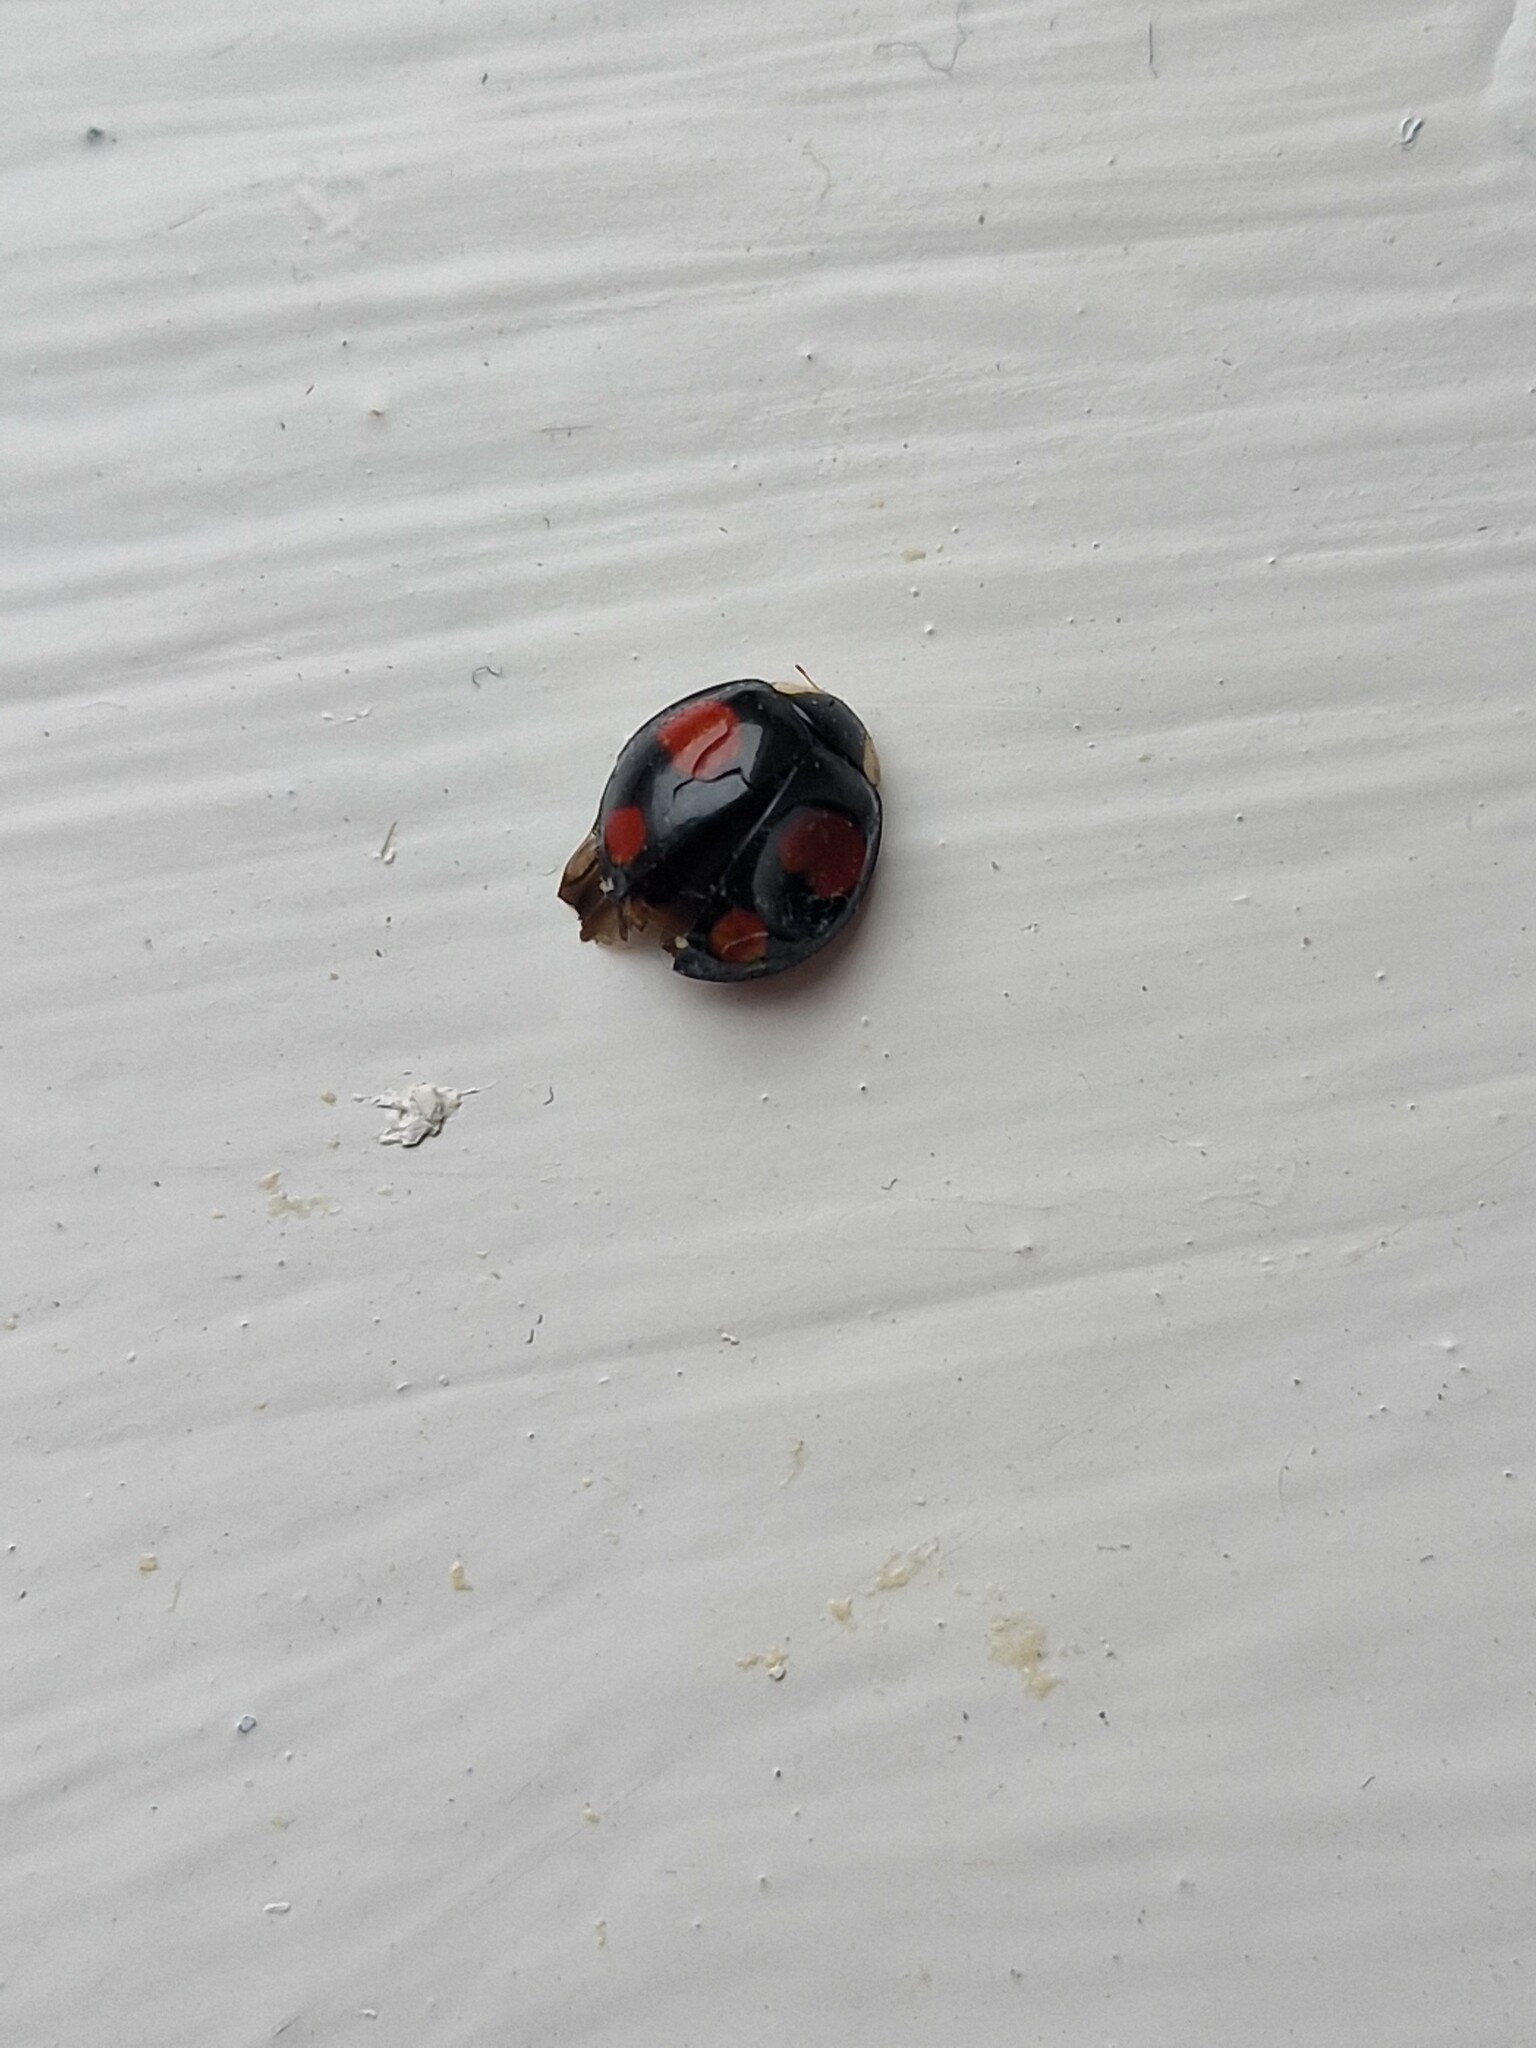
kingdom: Animalia
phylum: Arthropoda
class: Insecta
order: Coleoptera
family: Coccinellidae
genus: Harmonia
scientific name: Harmonia axyridis
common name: Harlequin ladybird
